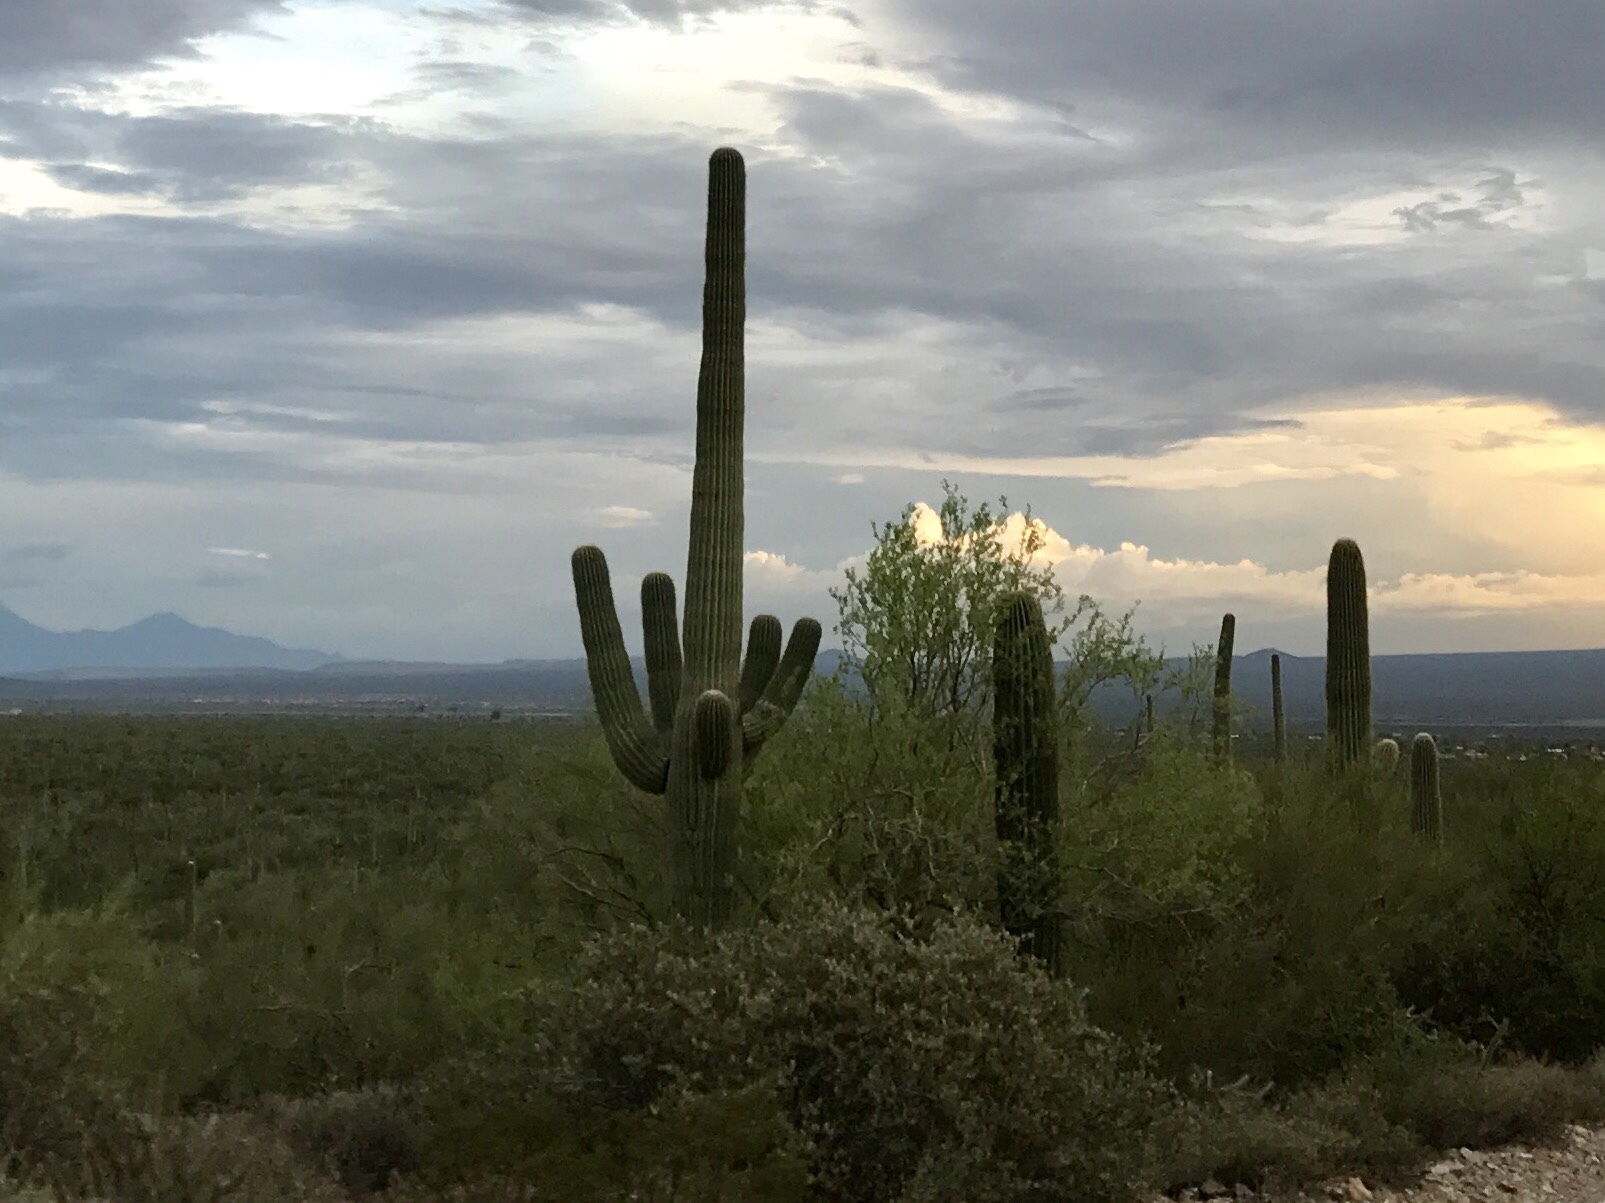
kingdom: Plantae
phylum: Tracheophyta
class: Magnoliopsida
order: Caryophyllales
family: Cactaceae
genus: Carnegiea
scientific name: Carnegiea gigantea
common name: Saguaro
